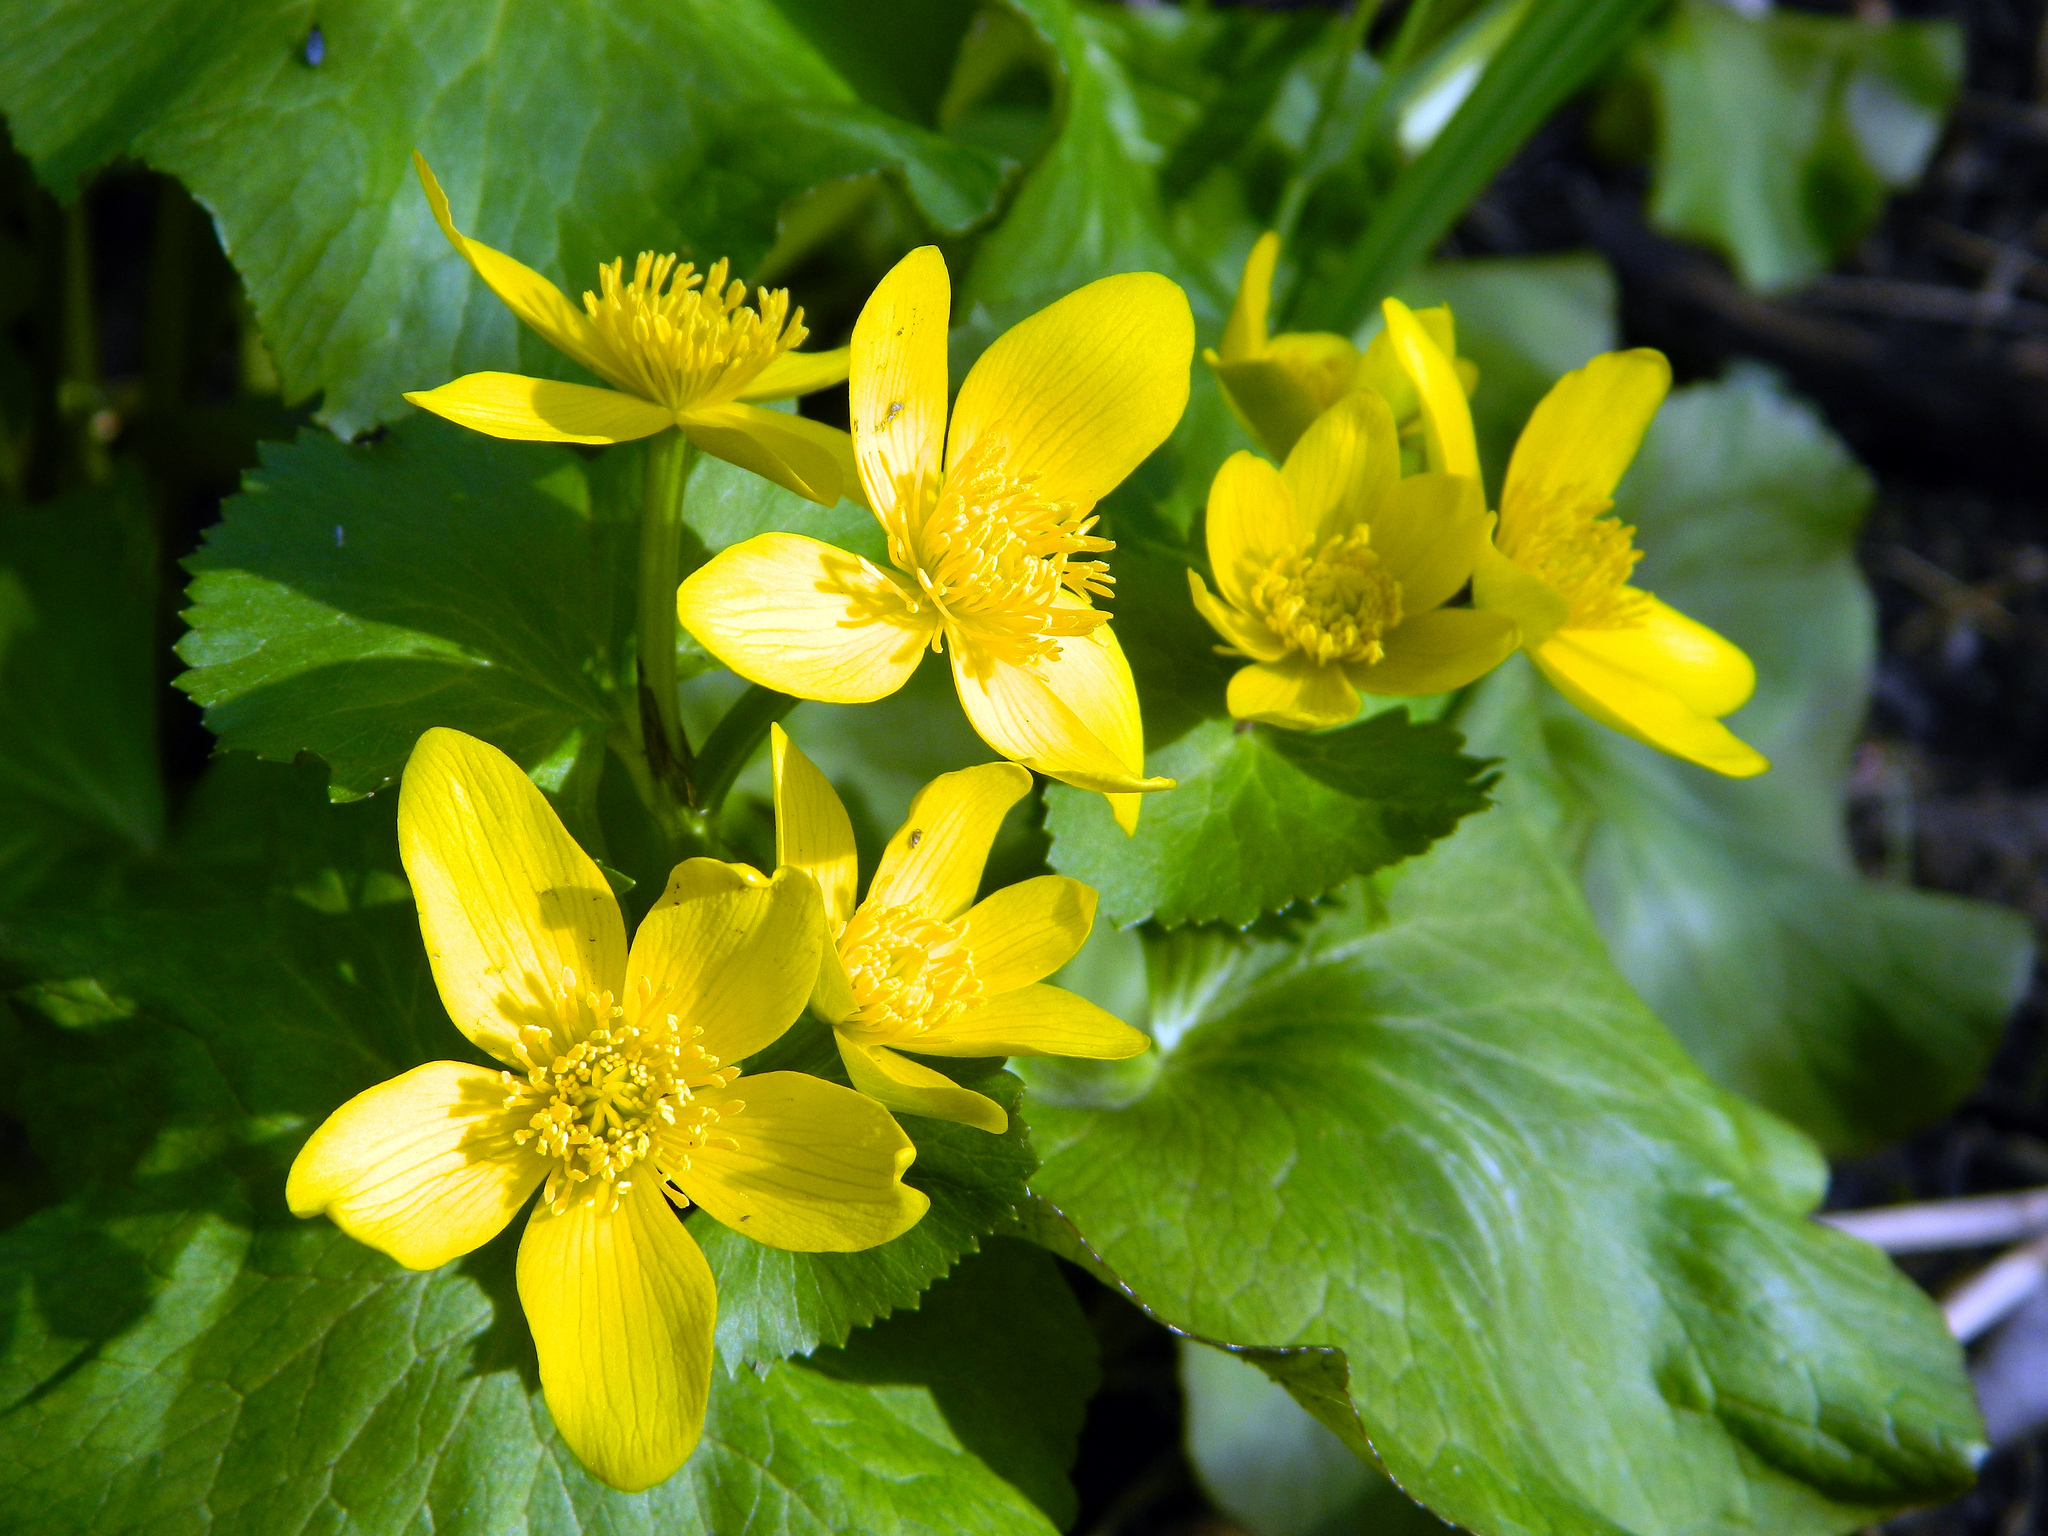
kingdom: Plantae
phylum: Tracheophyta
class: Magnoliopsida
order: Ranunculales
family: Ranunculaceae
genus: Caltha
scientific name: Caltha palustris
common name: Marsh marigold
